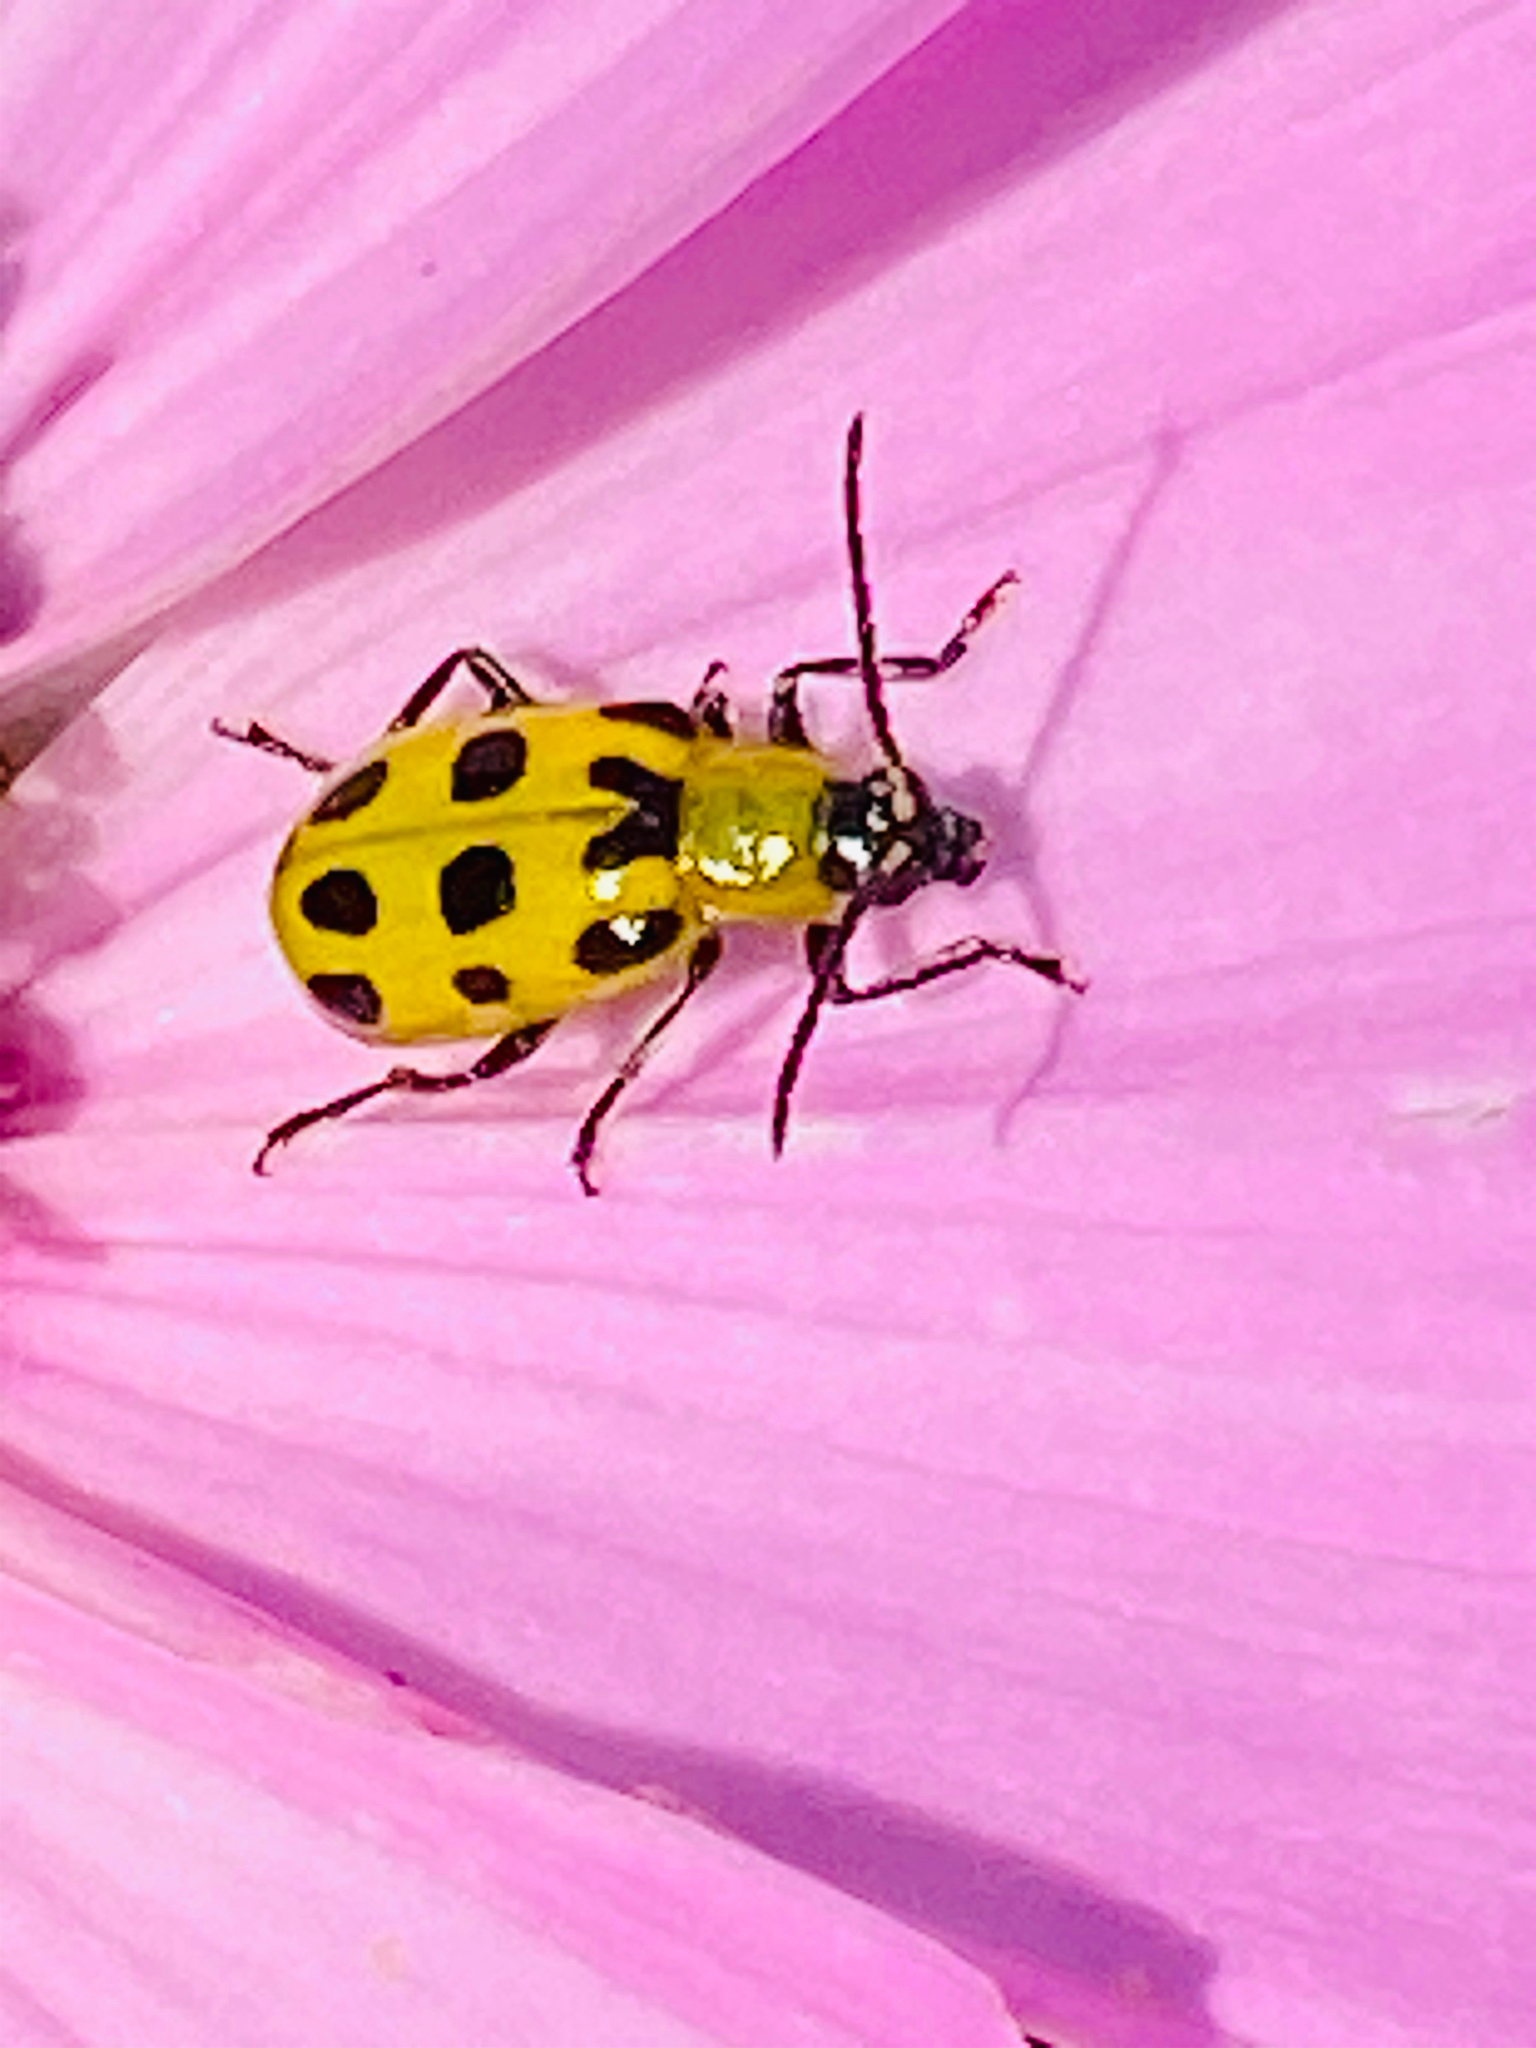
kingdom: Animalia
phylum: Arthropoda
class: Insecta
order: Coleoptera
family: Chrysomelidae
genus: Diabrotica
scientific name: Diabrotica undecimpunctata
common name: Spotted cucumber beetle
